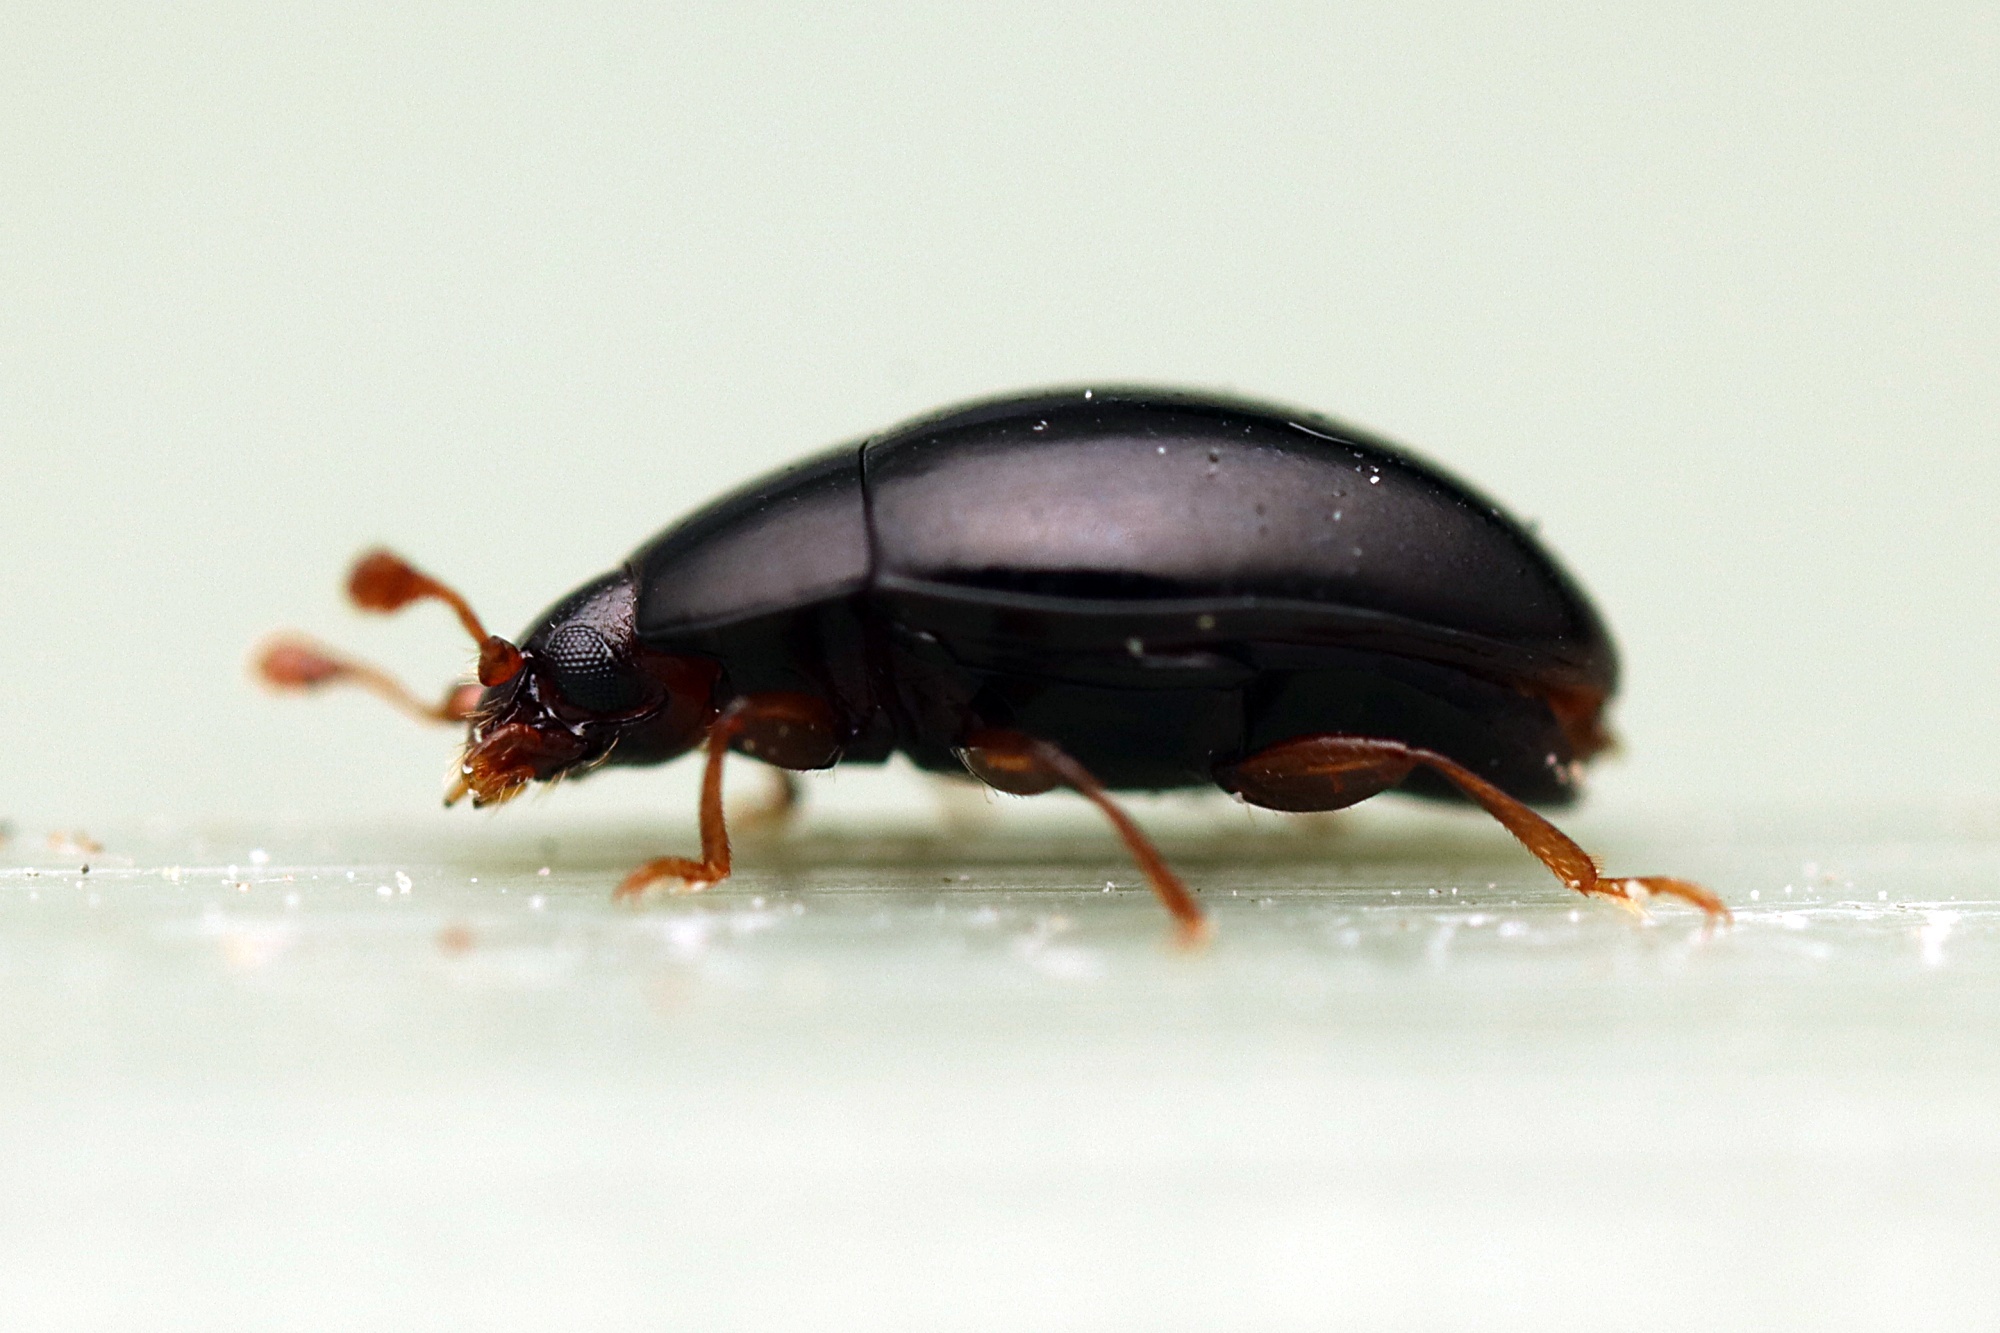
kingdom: Animalia
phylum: Arthropoda
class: Insecta
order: Coleoptera
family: Cerylonidae
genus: Hypodacnella
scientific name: Hypodacnella
